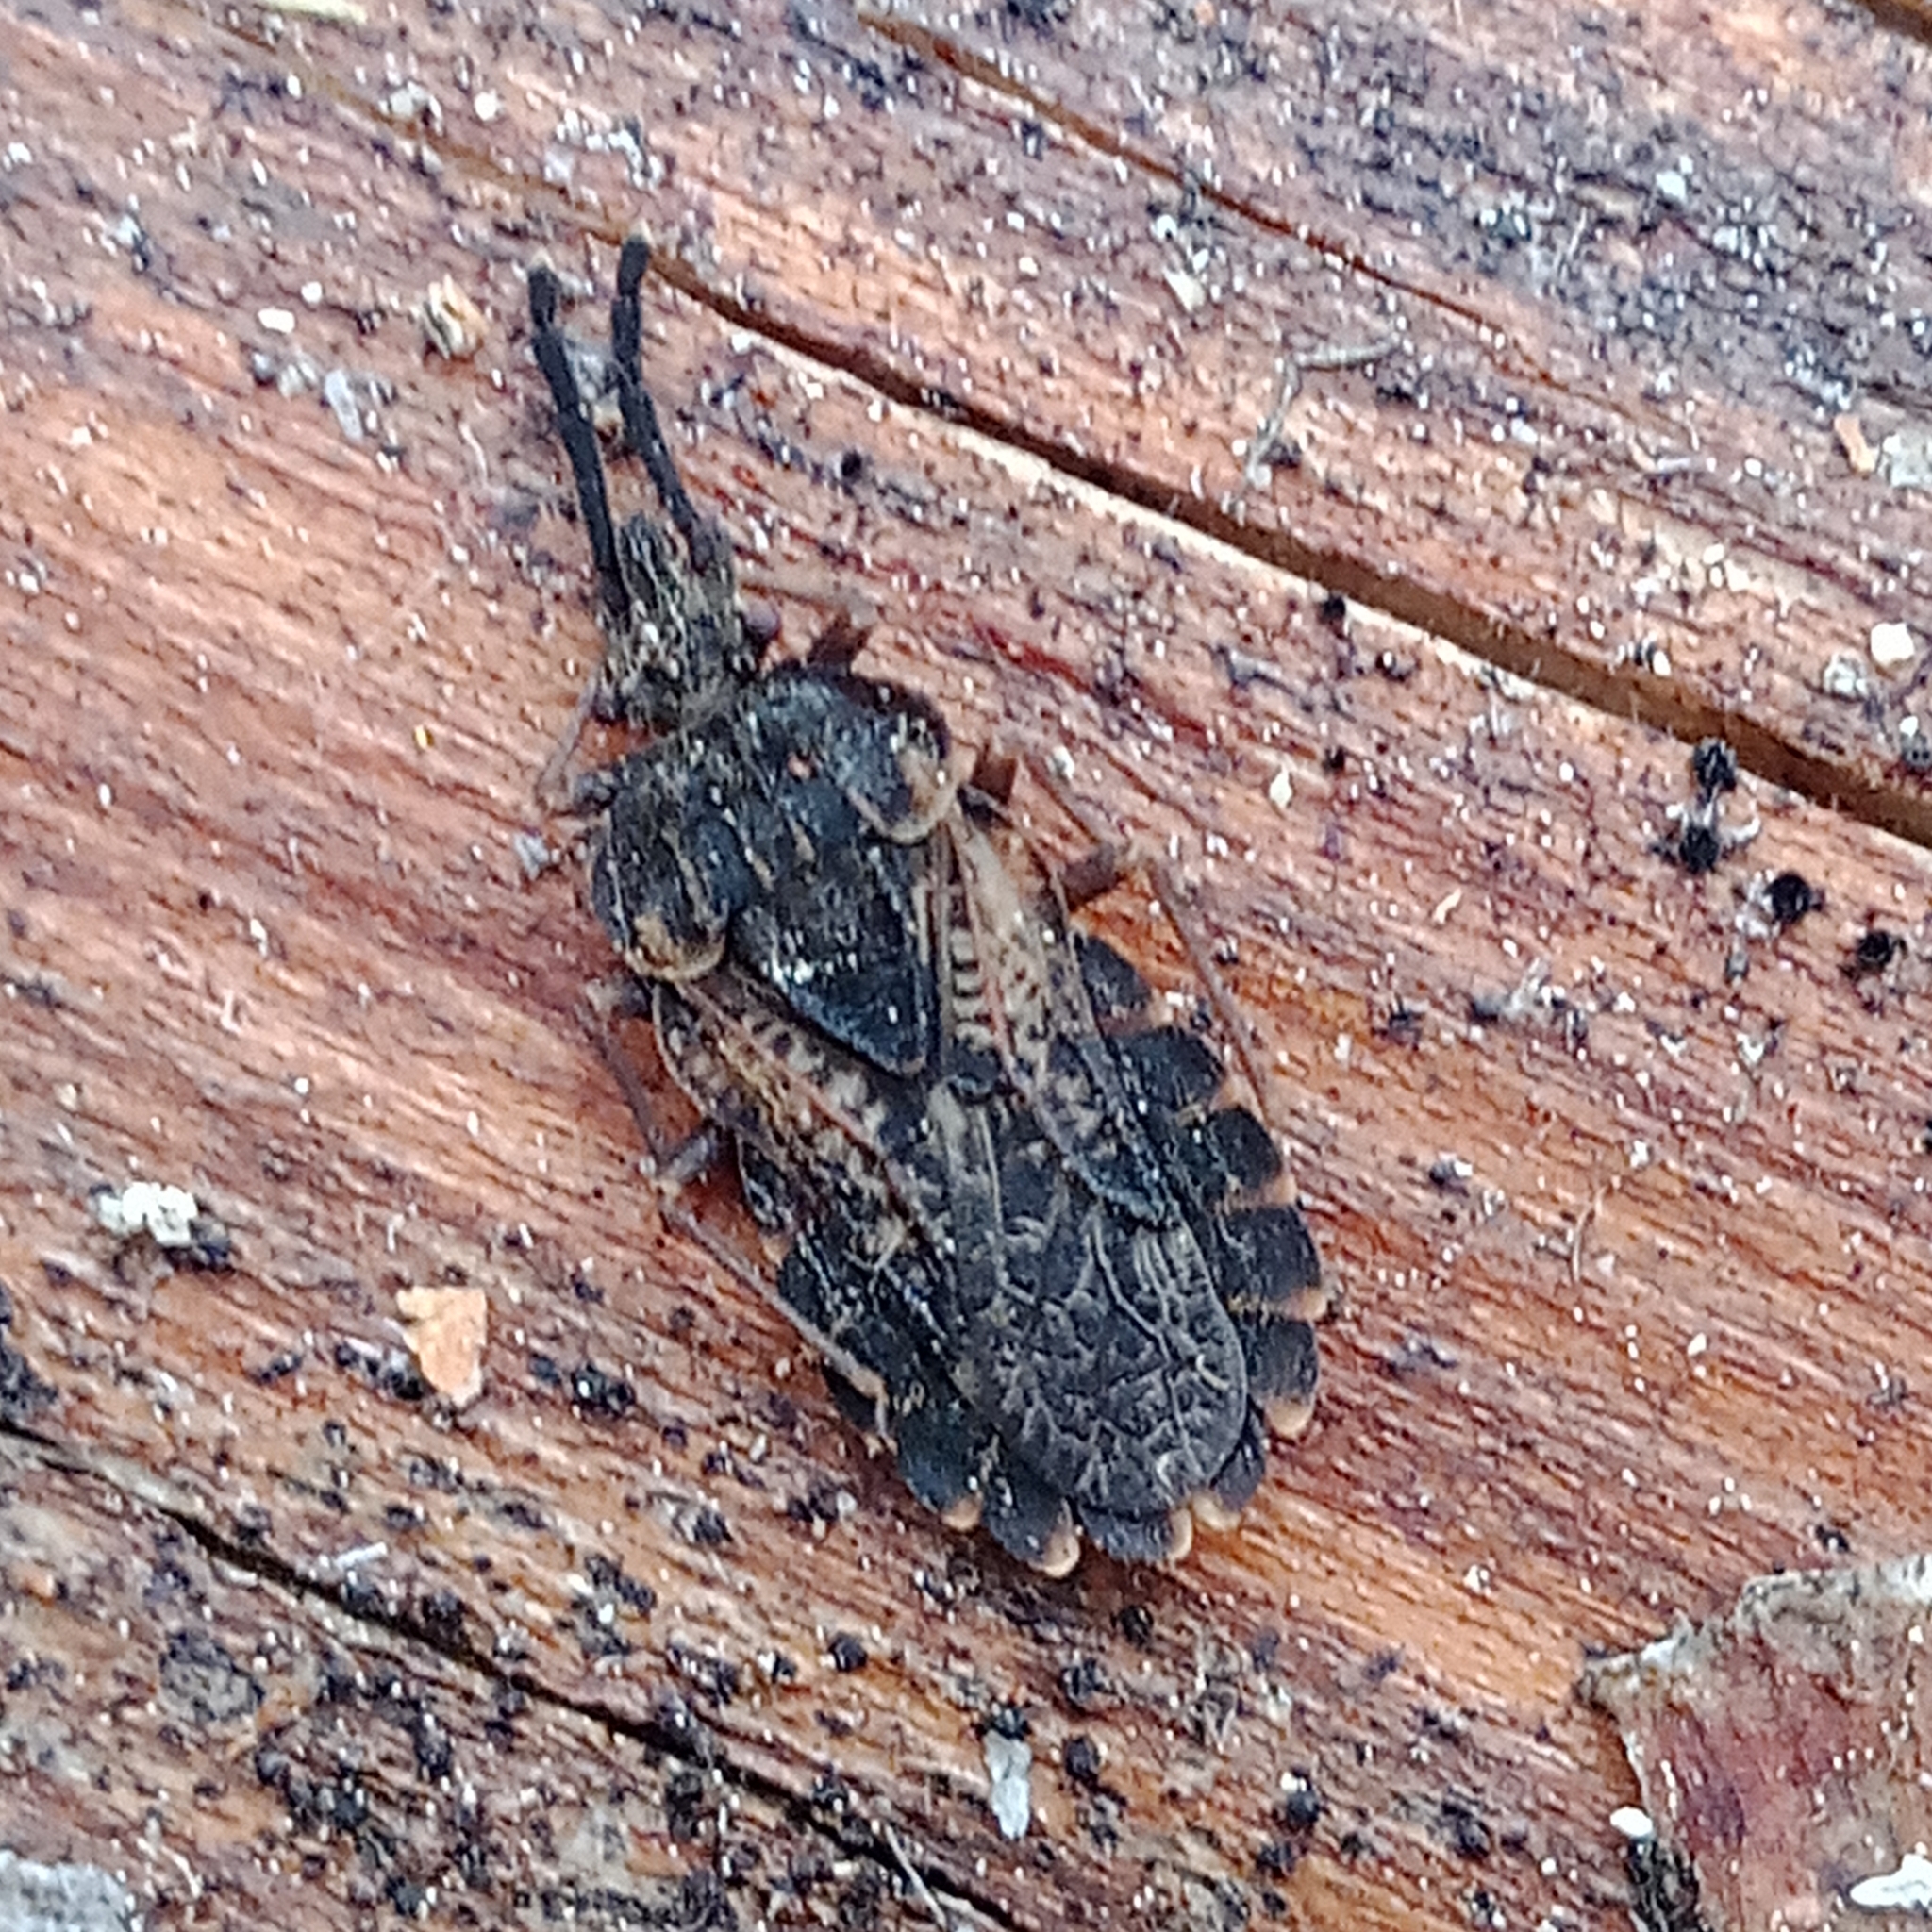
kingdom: Animalia
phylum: Arthropoda
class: Insecta
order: Hemiptera
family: Aradidae
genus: Aradus
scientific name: Aradus corticalis
